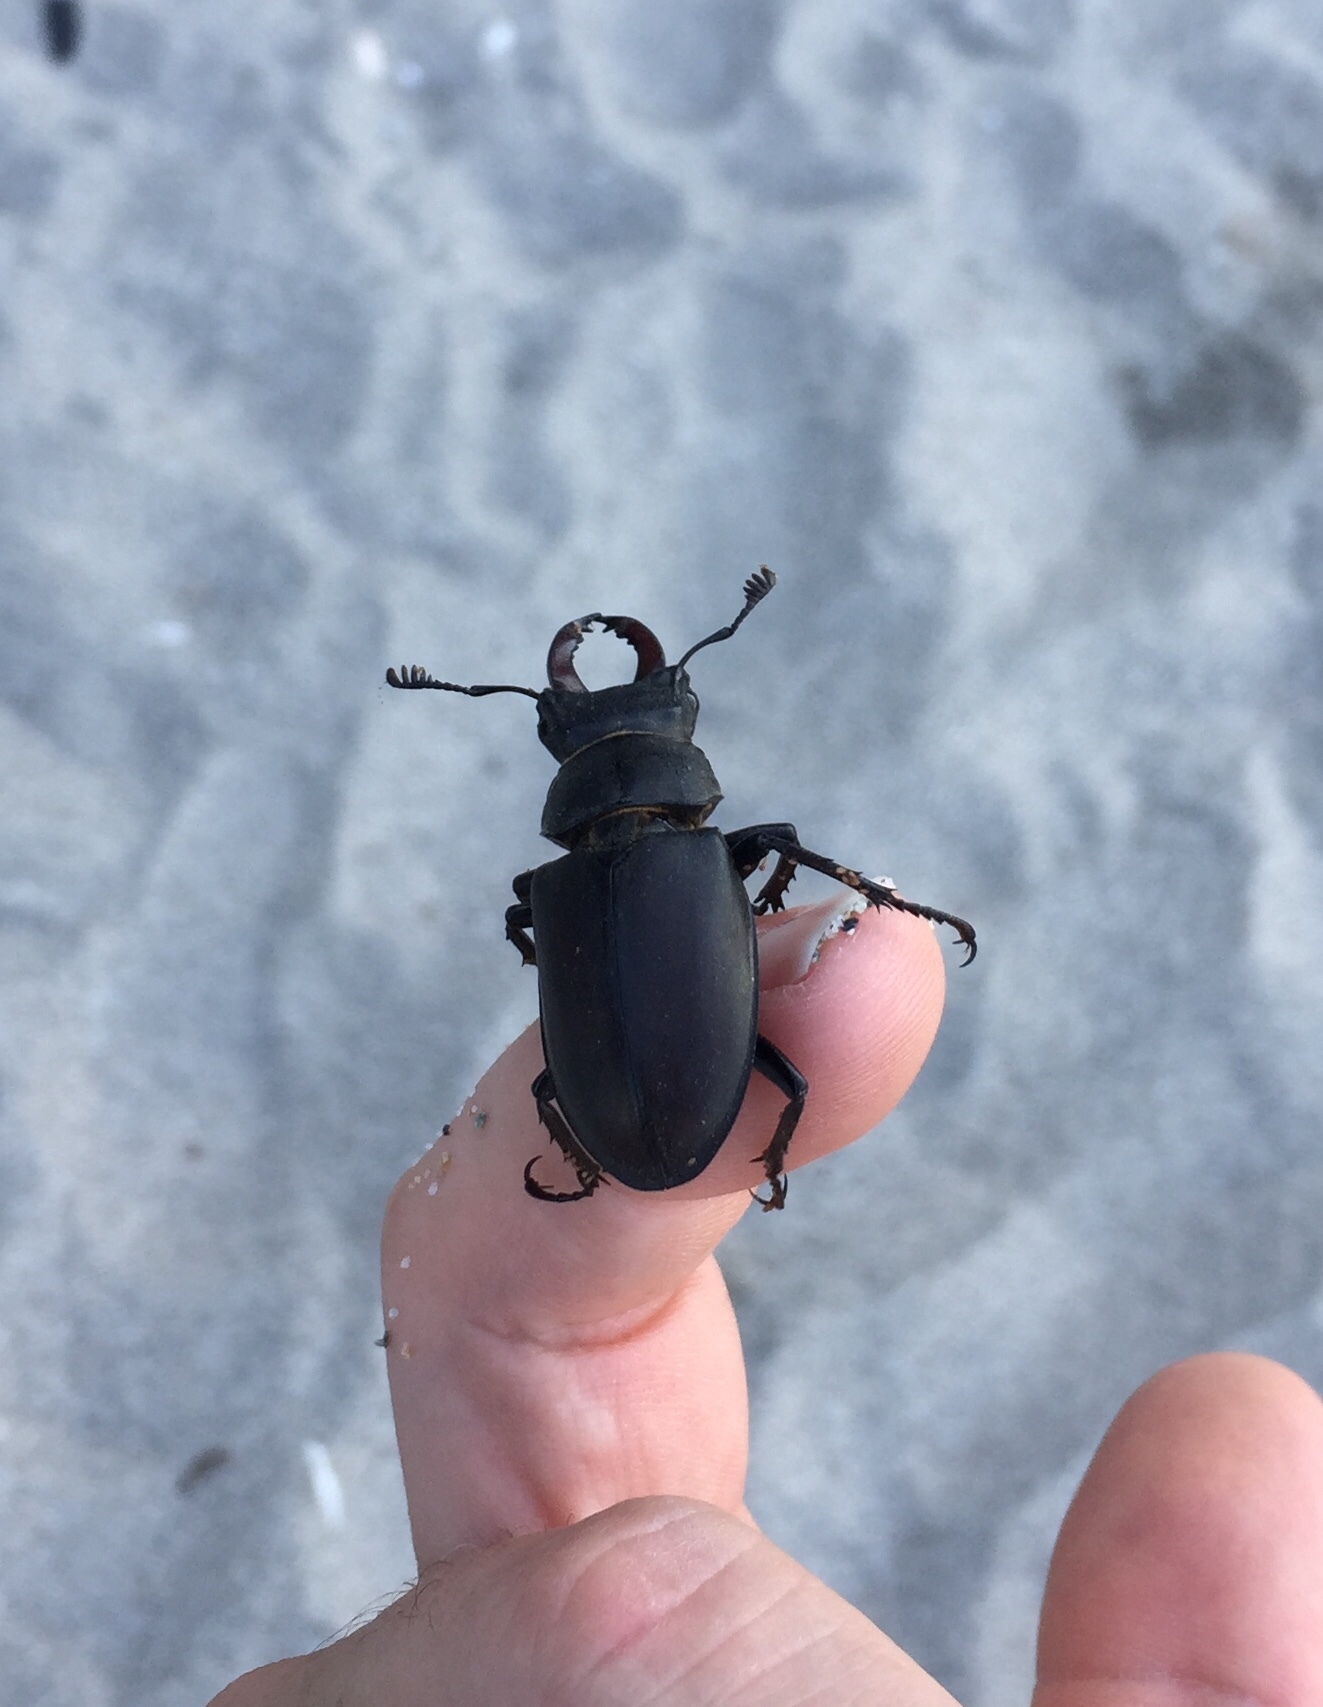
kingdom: Animalia
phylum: Arthropoda
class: Insecta
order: Coleoptera
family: Lucanidae
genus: Lucanus
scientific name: Lucanus cervus
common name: Stag beetle
